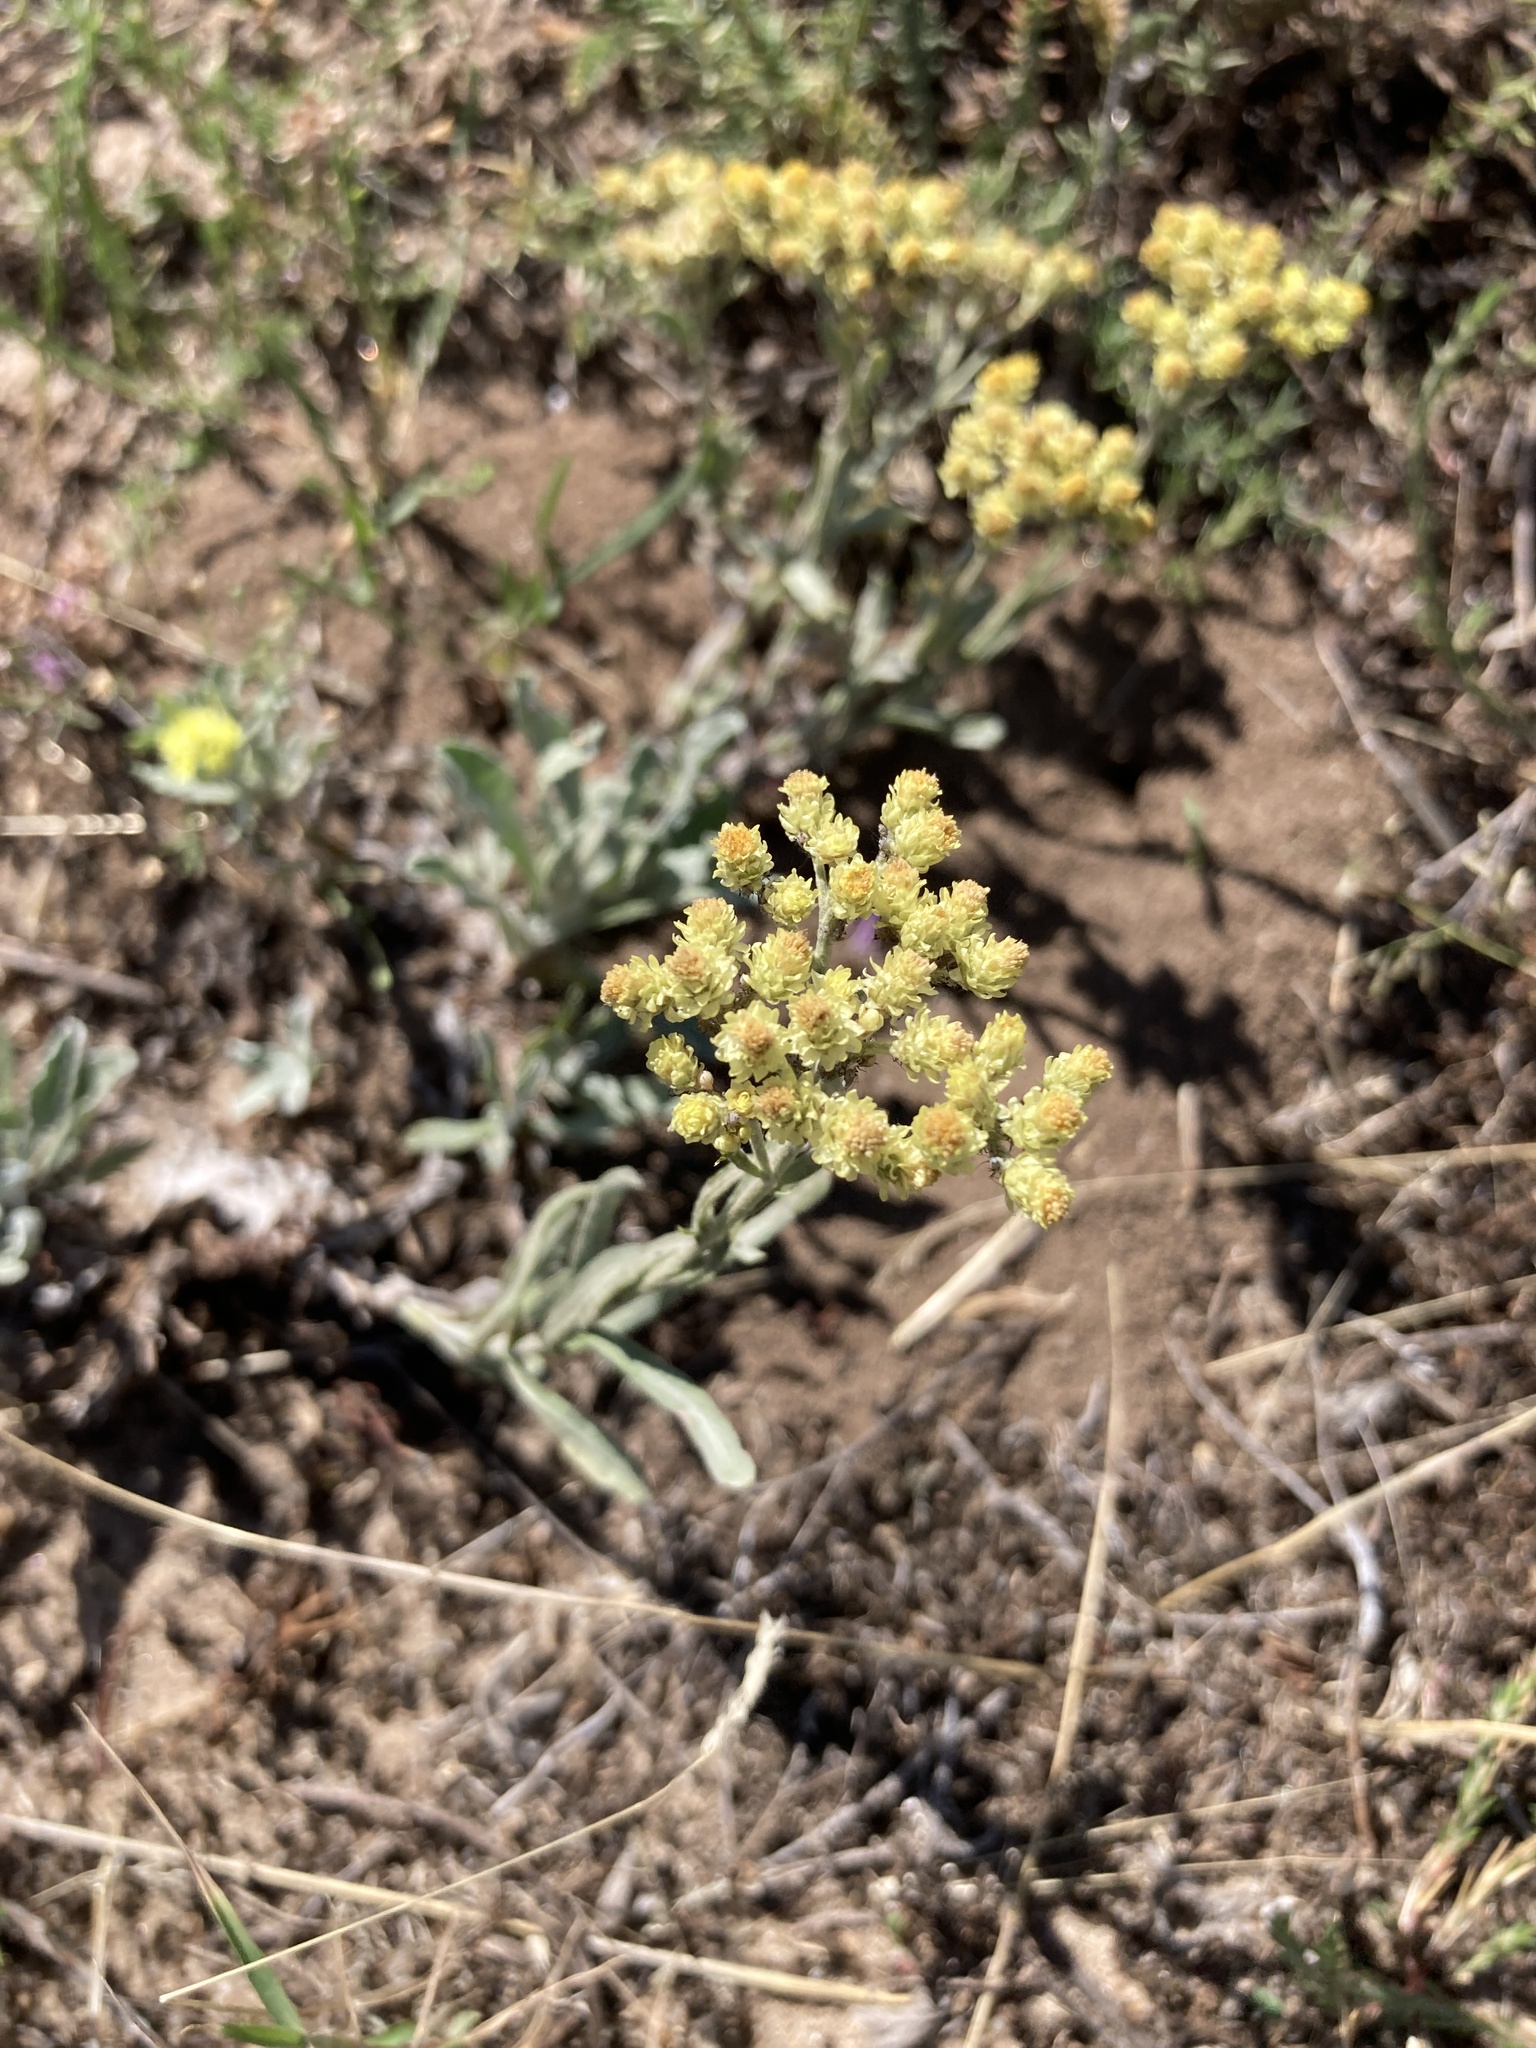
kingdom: Plantae
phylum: Tracheophyta
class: Magnoliopsida
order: Asterales
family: Asteraceae
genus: Helichrysum
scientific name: Helichrysum arenarium
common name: Strawflower
